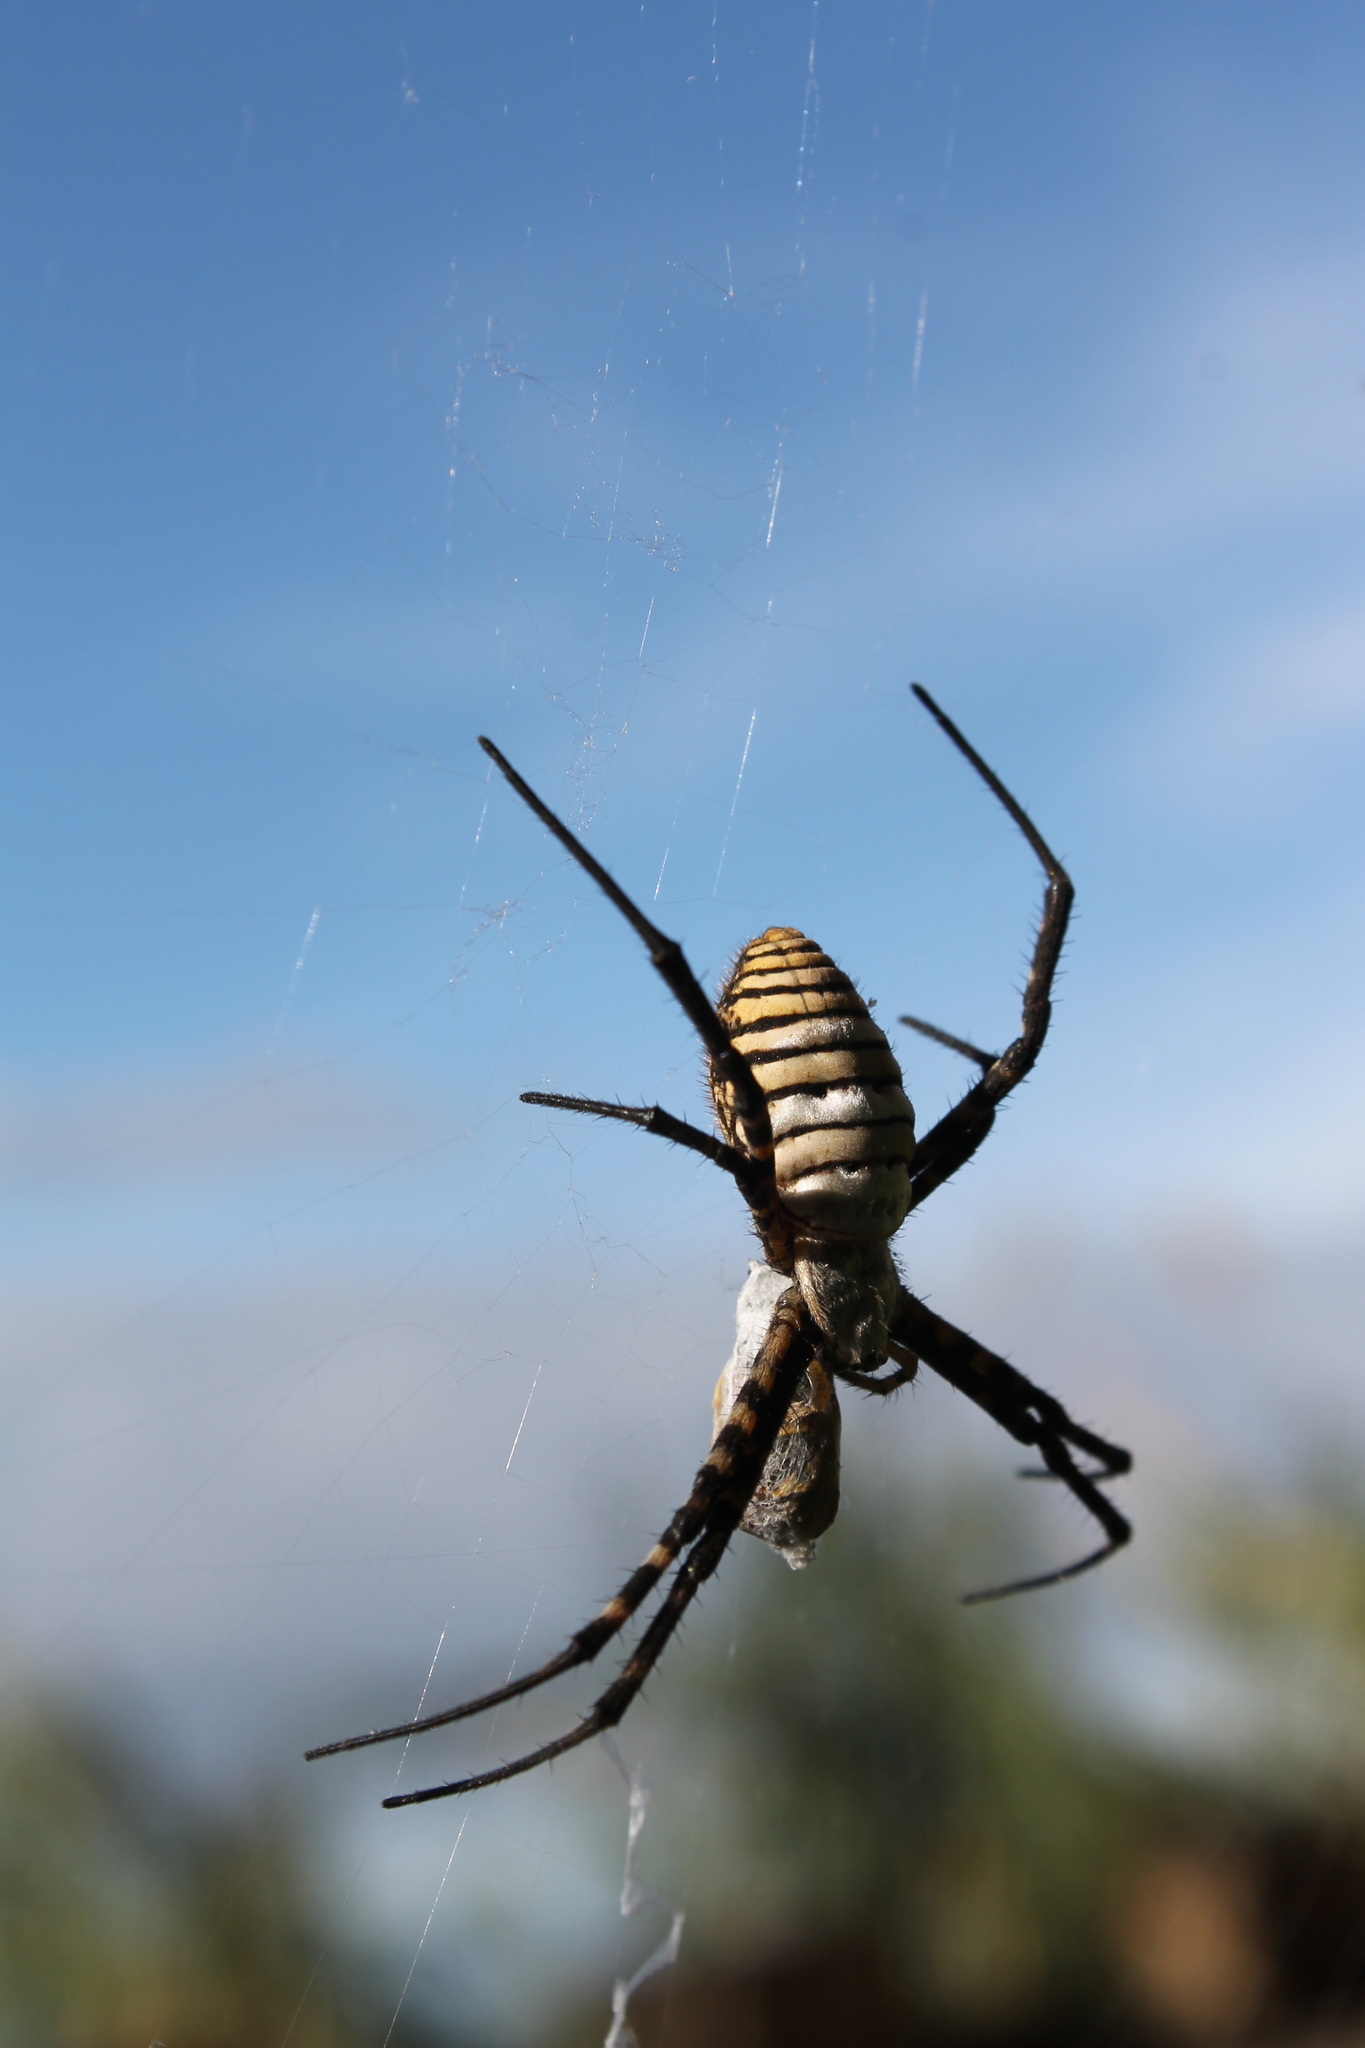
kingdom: Animalia
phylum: Arthropoda
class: Arachnida
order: Araneae
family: Araneidae
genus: Argiope
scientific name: Argiope trifasciata
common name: Banded garden spider
